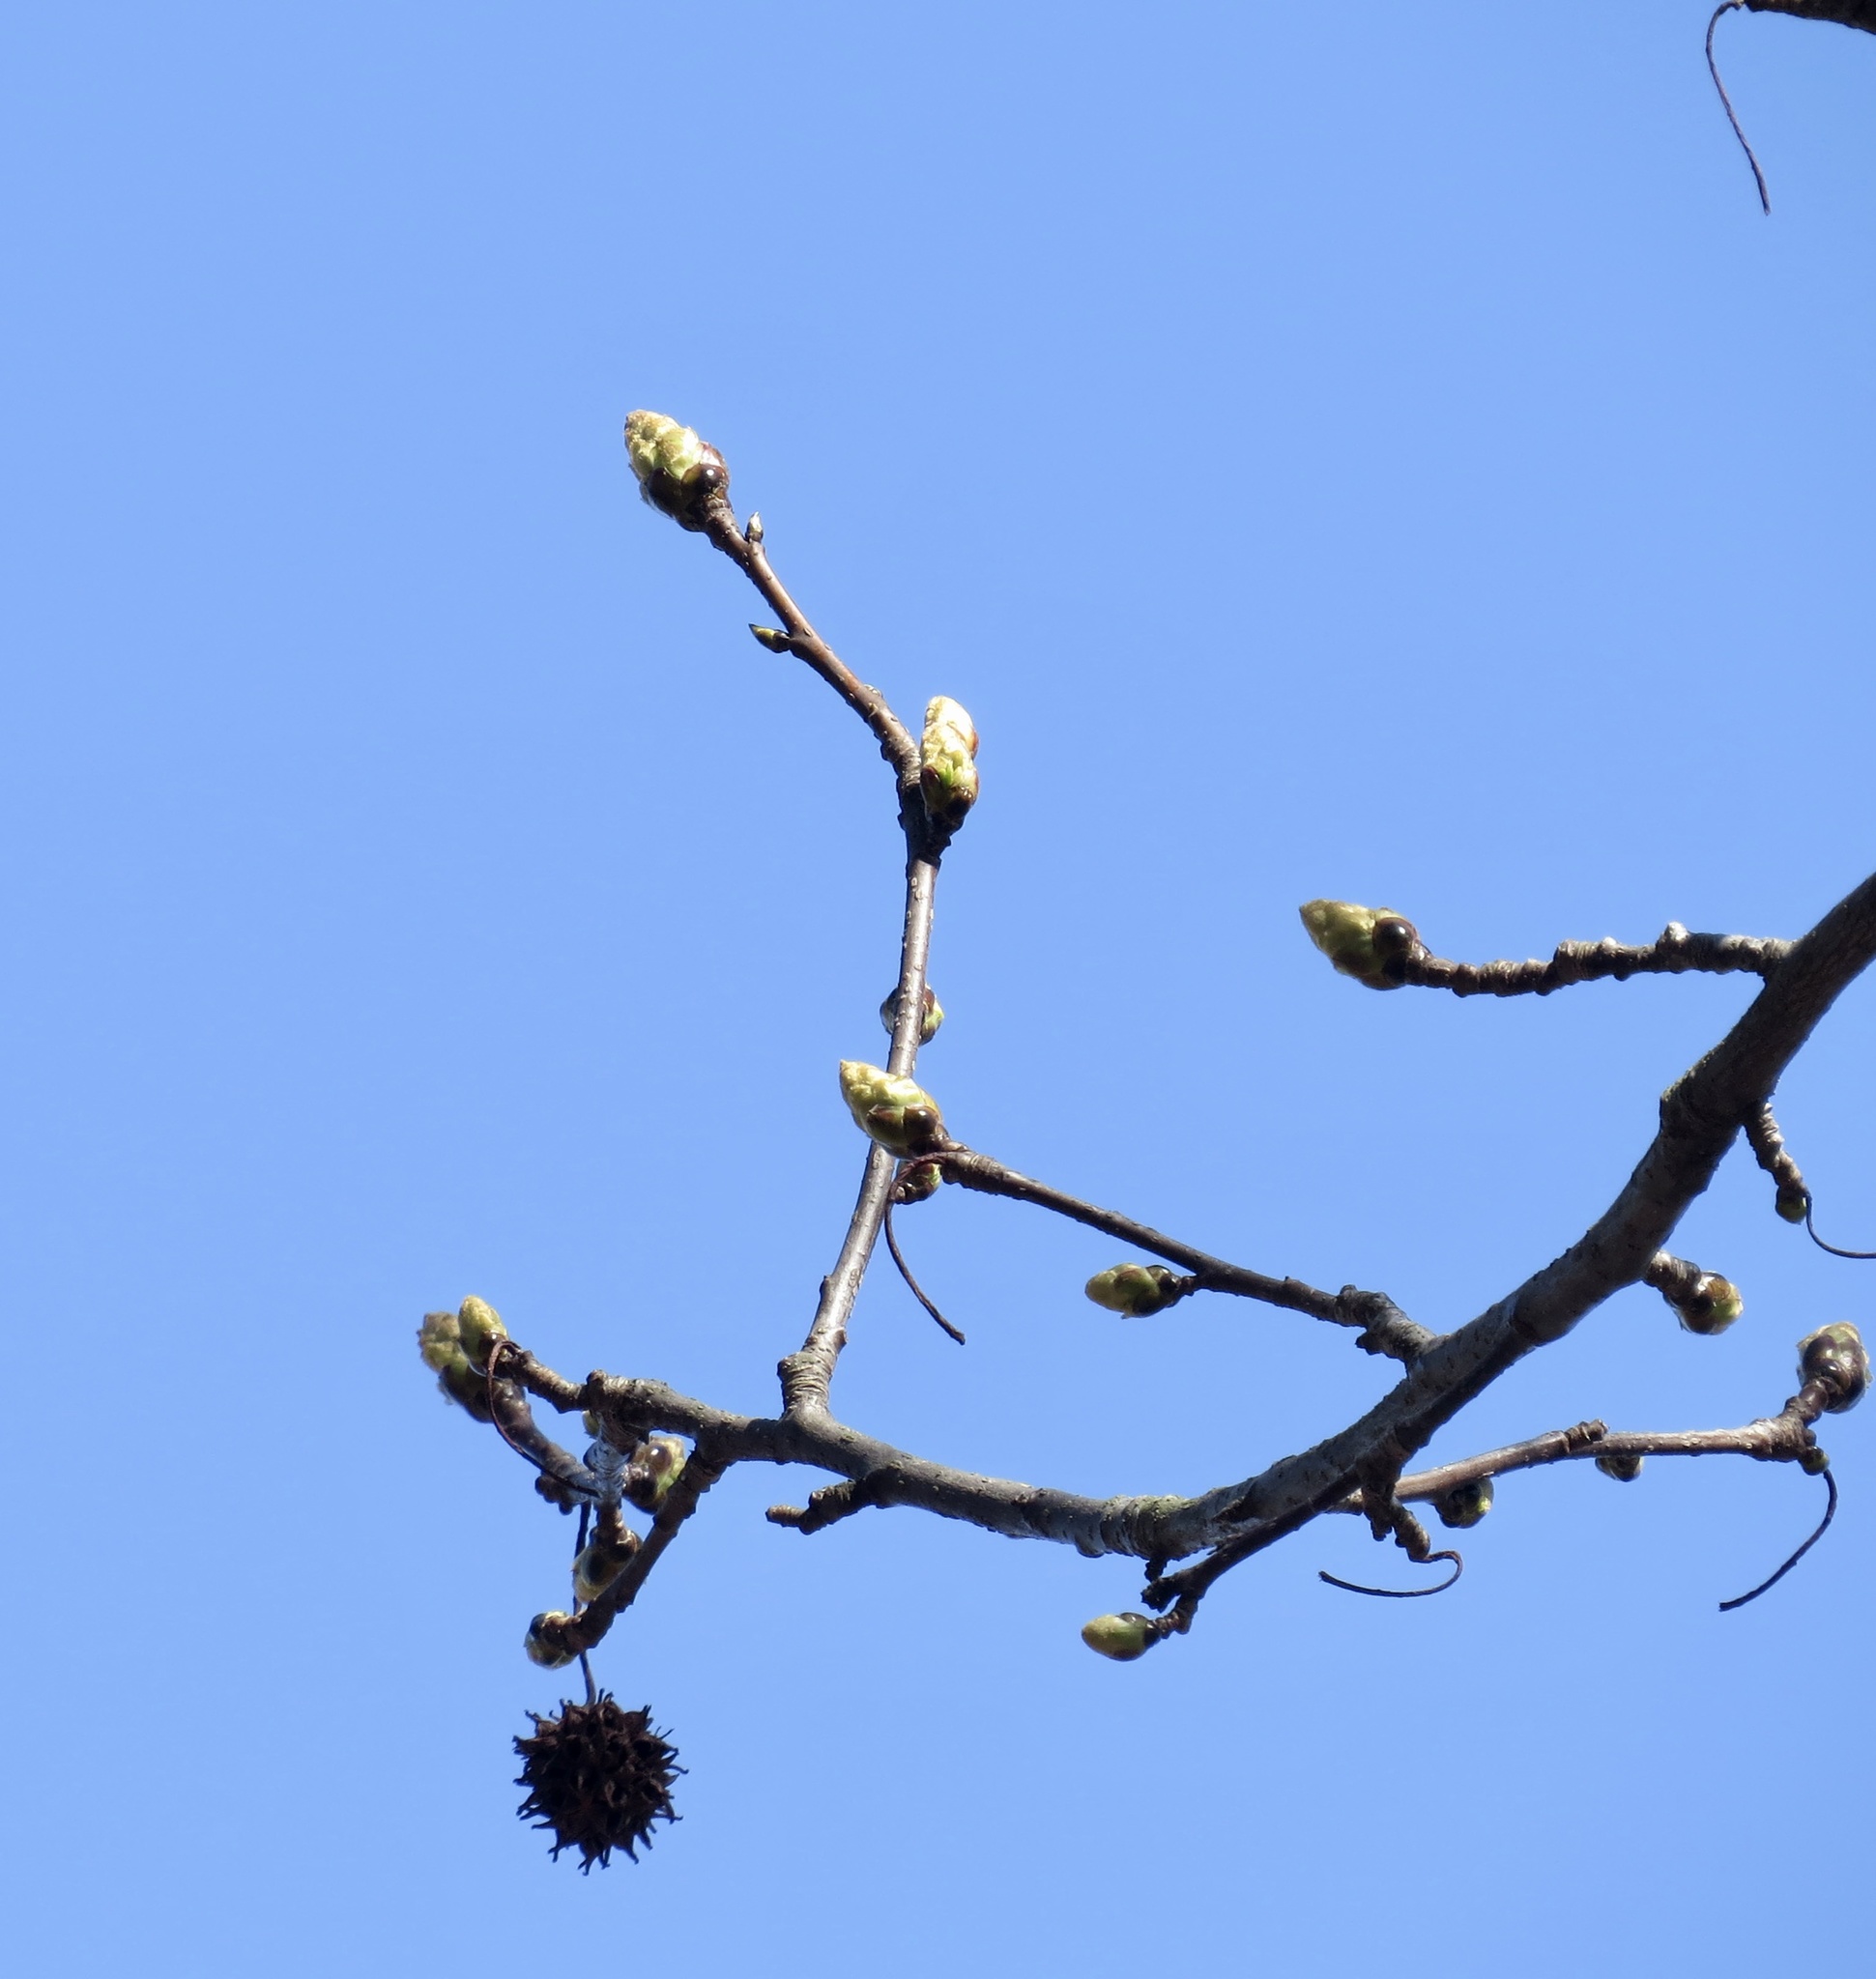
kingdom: Plantae
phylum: Tracheophyta
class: Magnoliopsida
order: Saxifragales
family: Altingiaceae
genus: Liquidambar
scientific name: Liquidambar styraciflua
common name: Sweet gum
